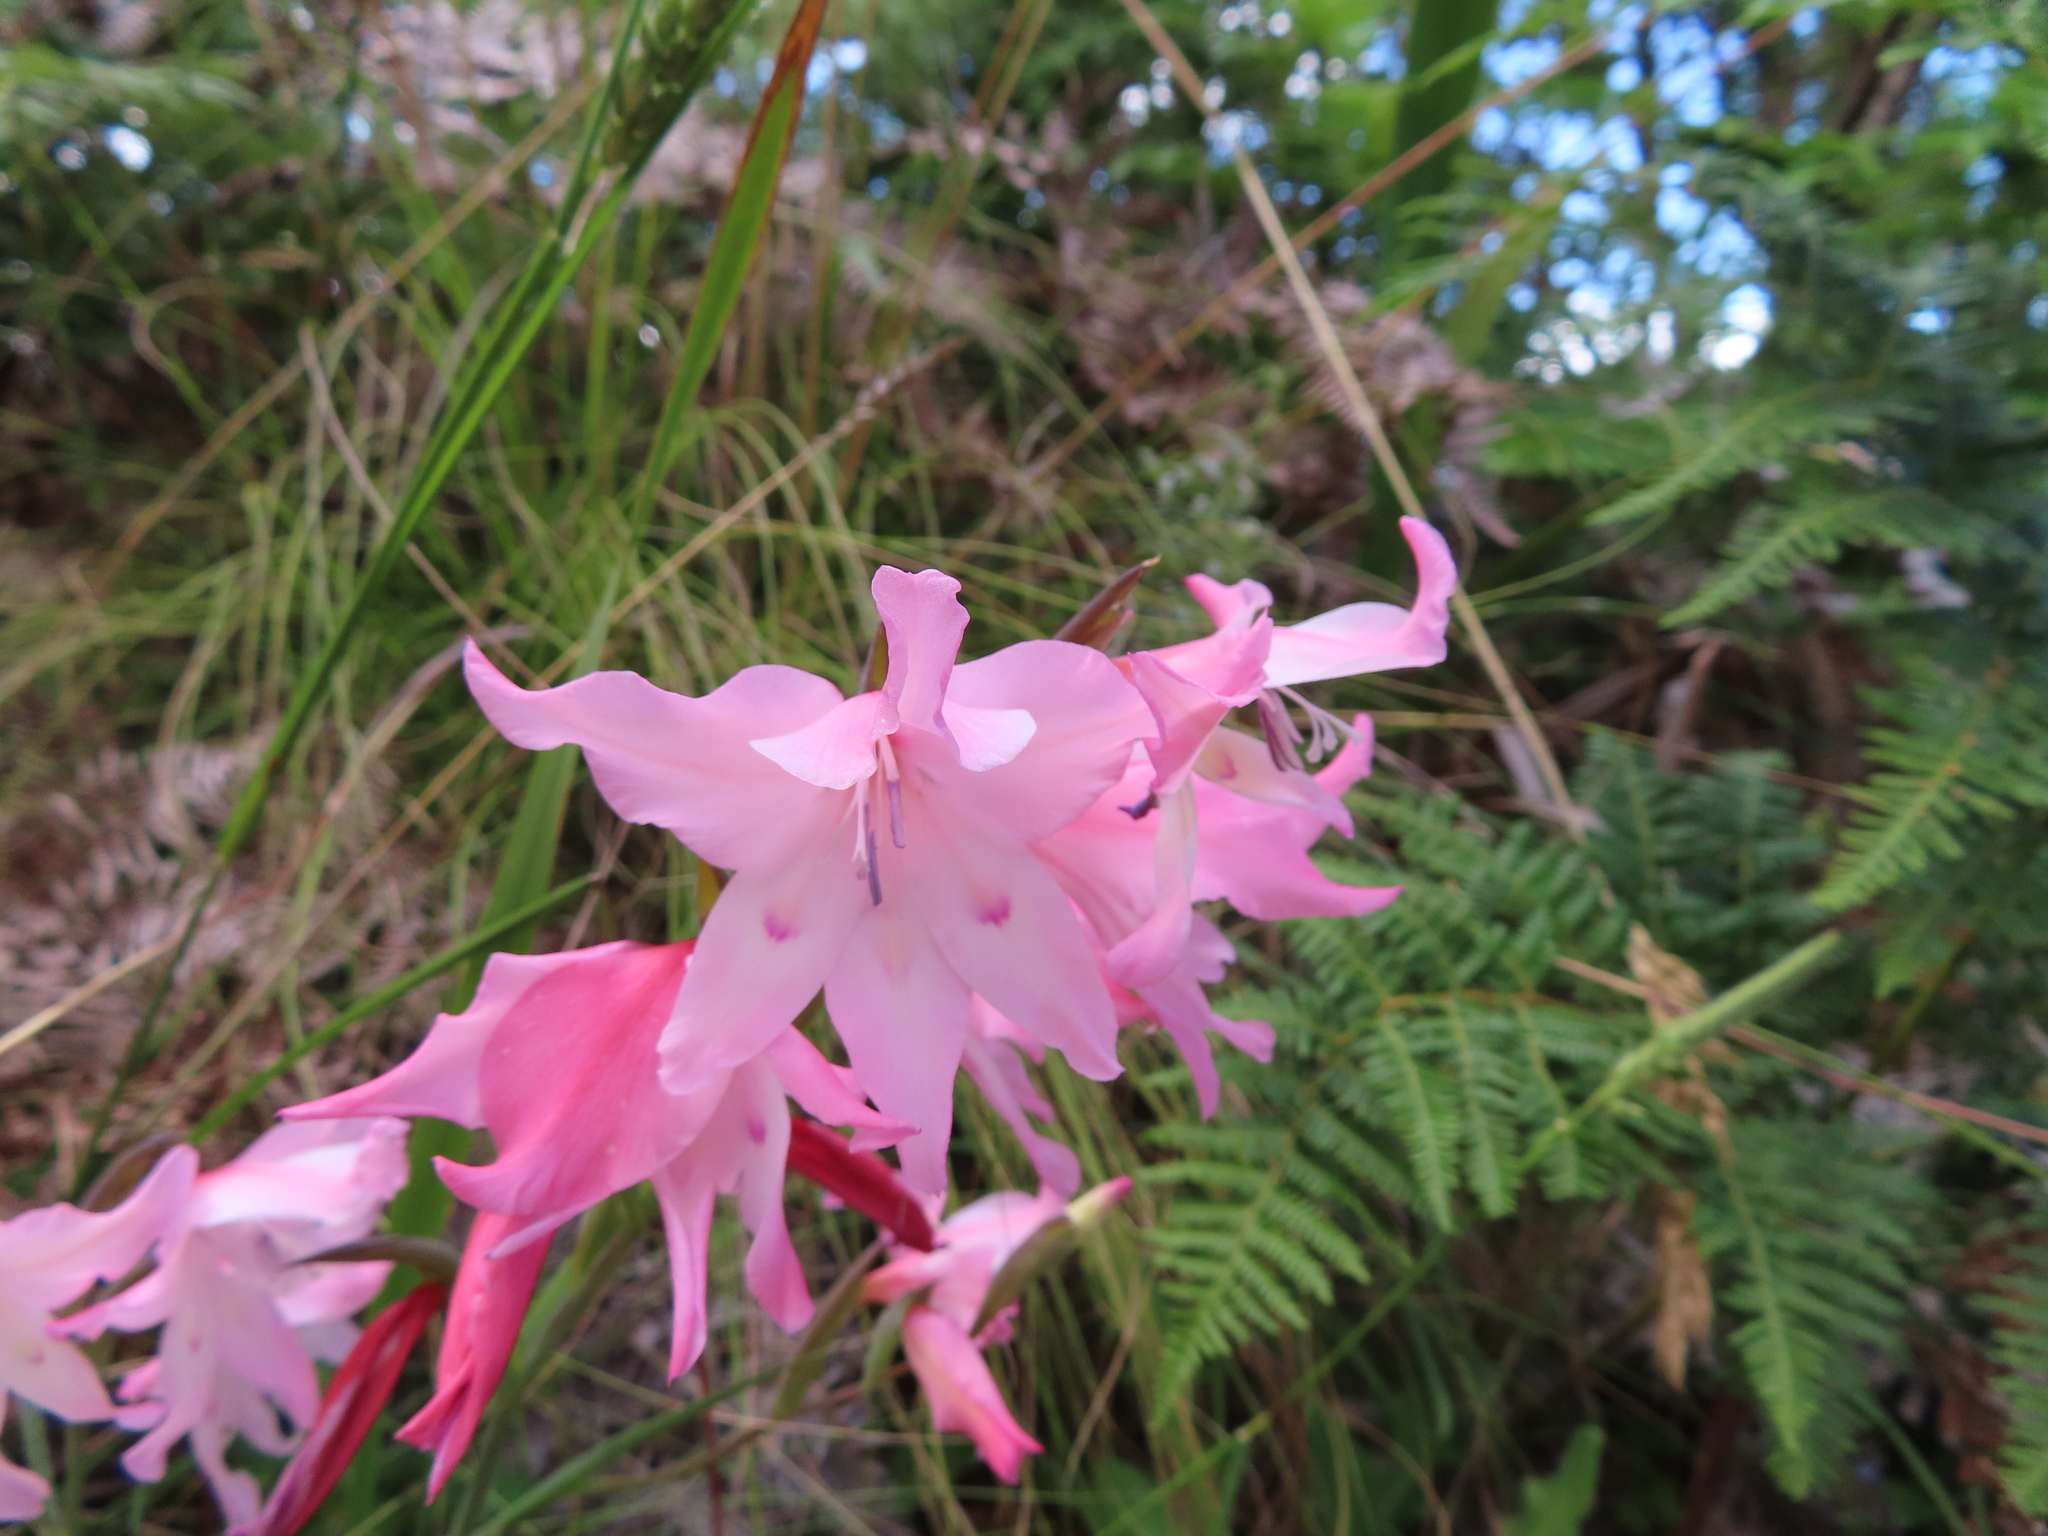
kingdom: Plantae
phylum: Tracheophyta
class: Liliopsida
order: Asparagales
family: Iridaceae
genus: Gladiolus
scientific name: Gladiolus carneus
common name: Painted-lady
